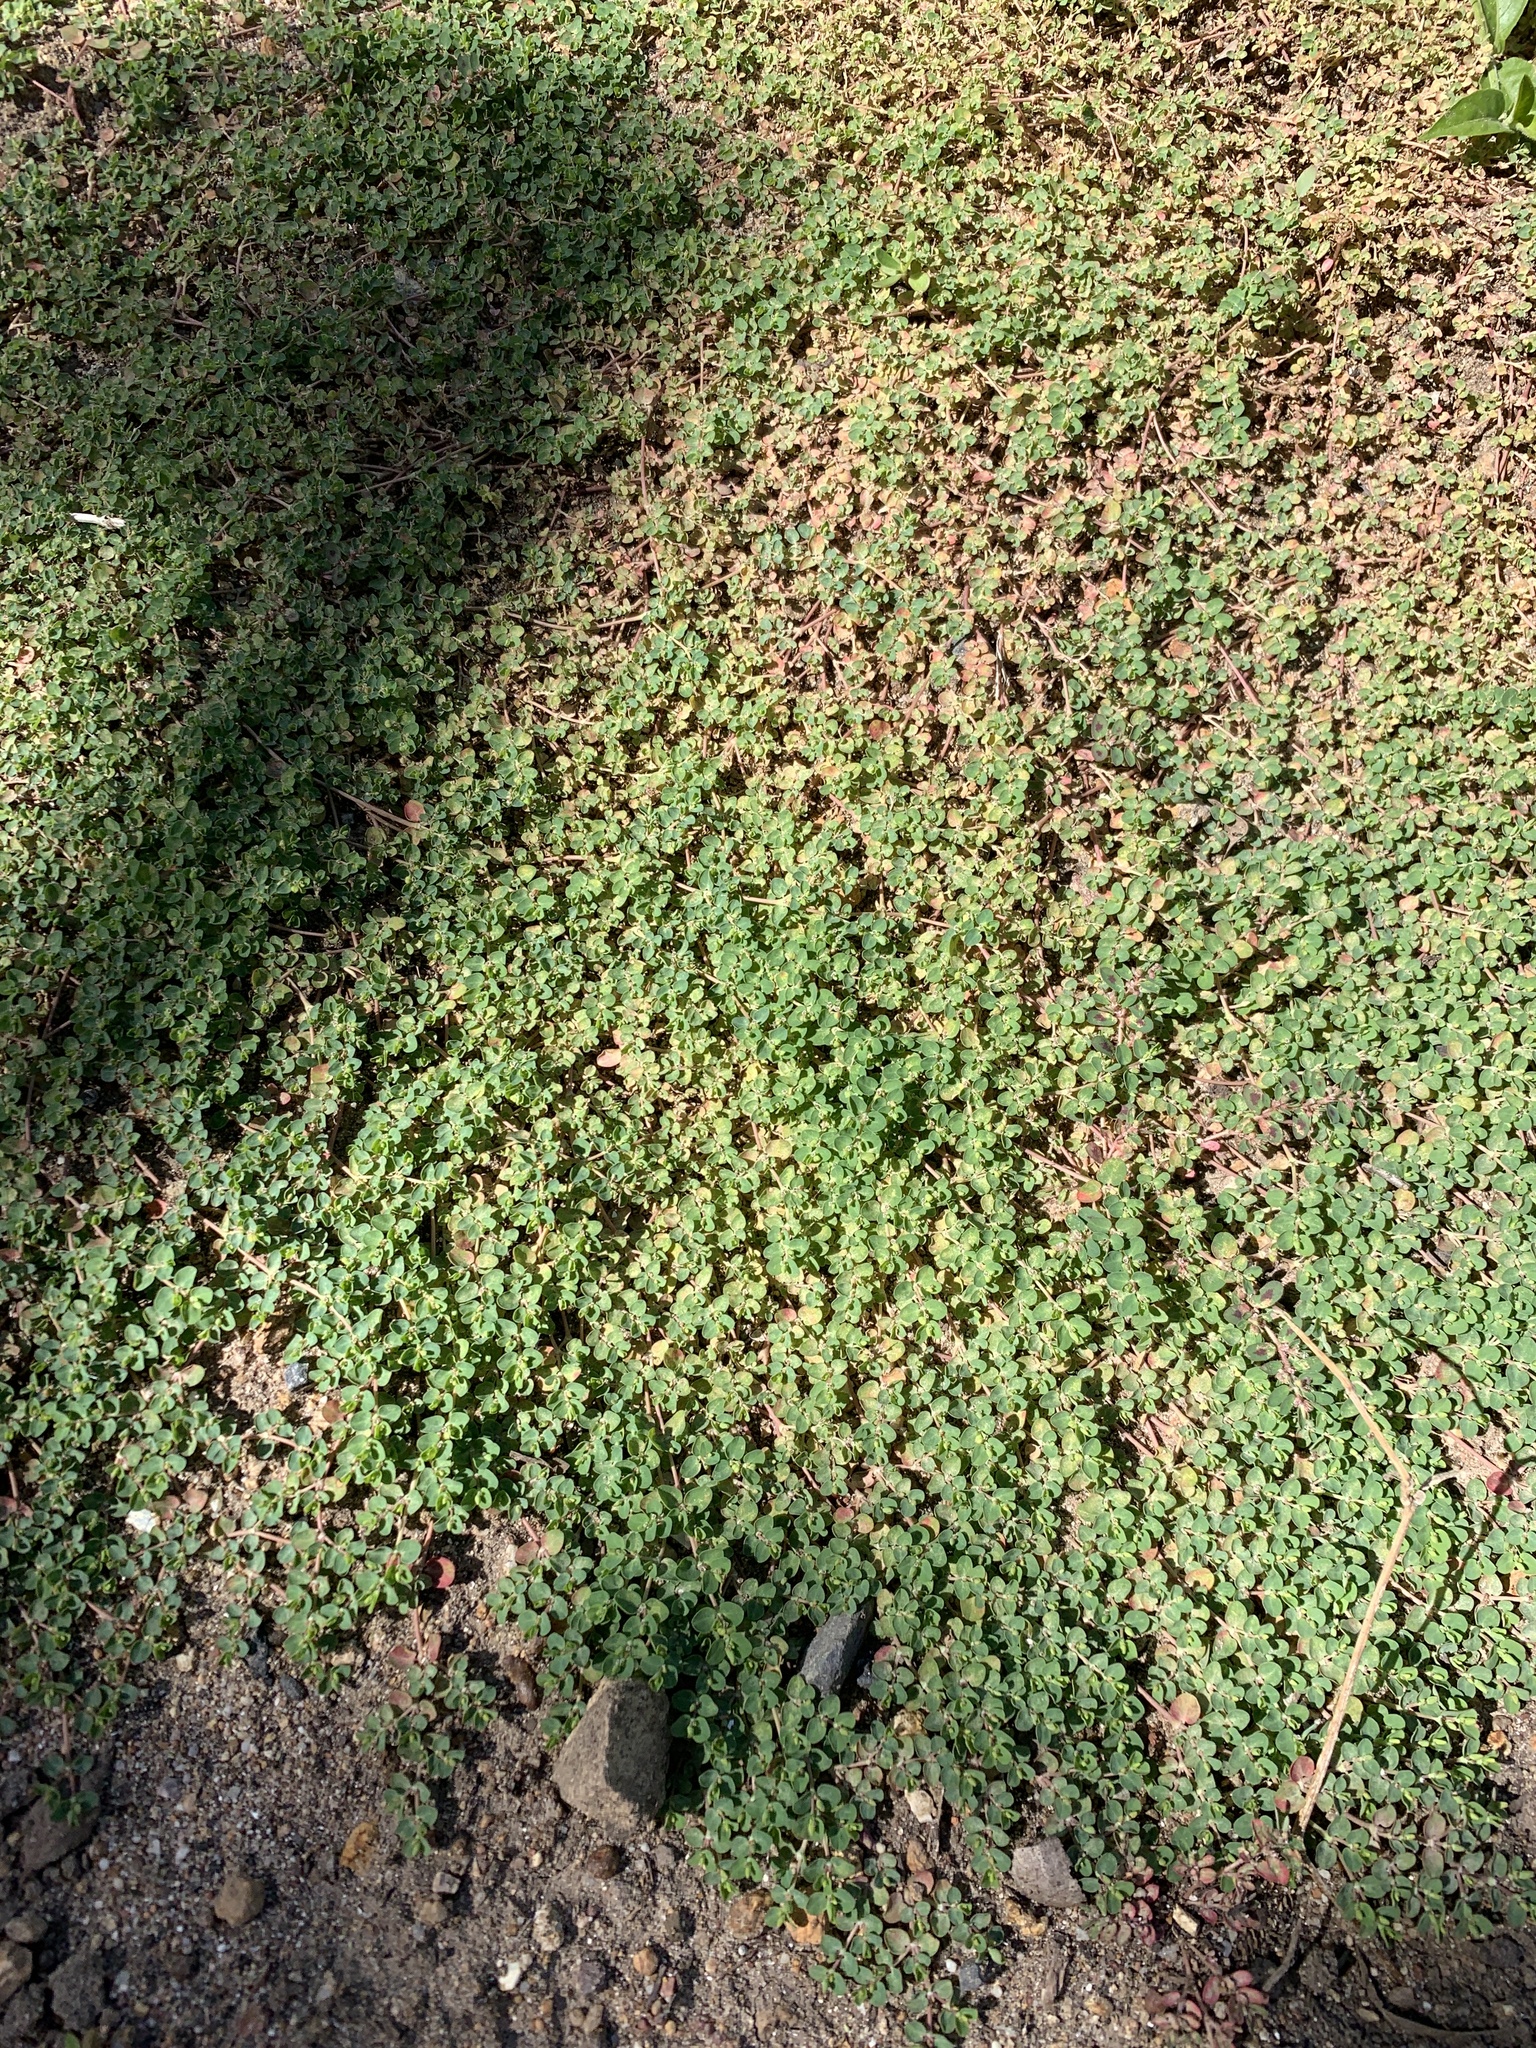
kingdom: Plantae
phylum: Tracheophyta
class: Magnoliopsida
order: Malpighiales
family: Euphorbiaceae
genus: Euphorbia
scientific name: Euphorbia serpens
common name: Matted sandmat
